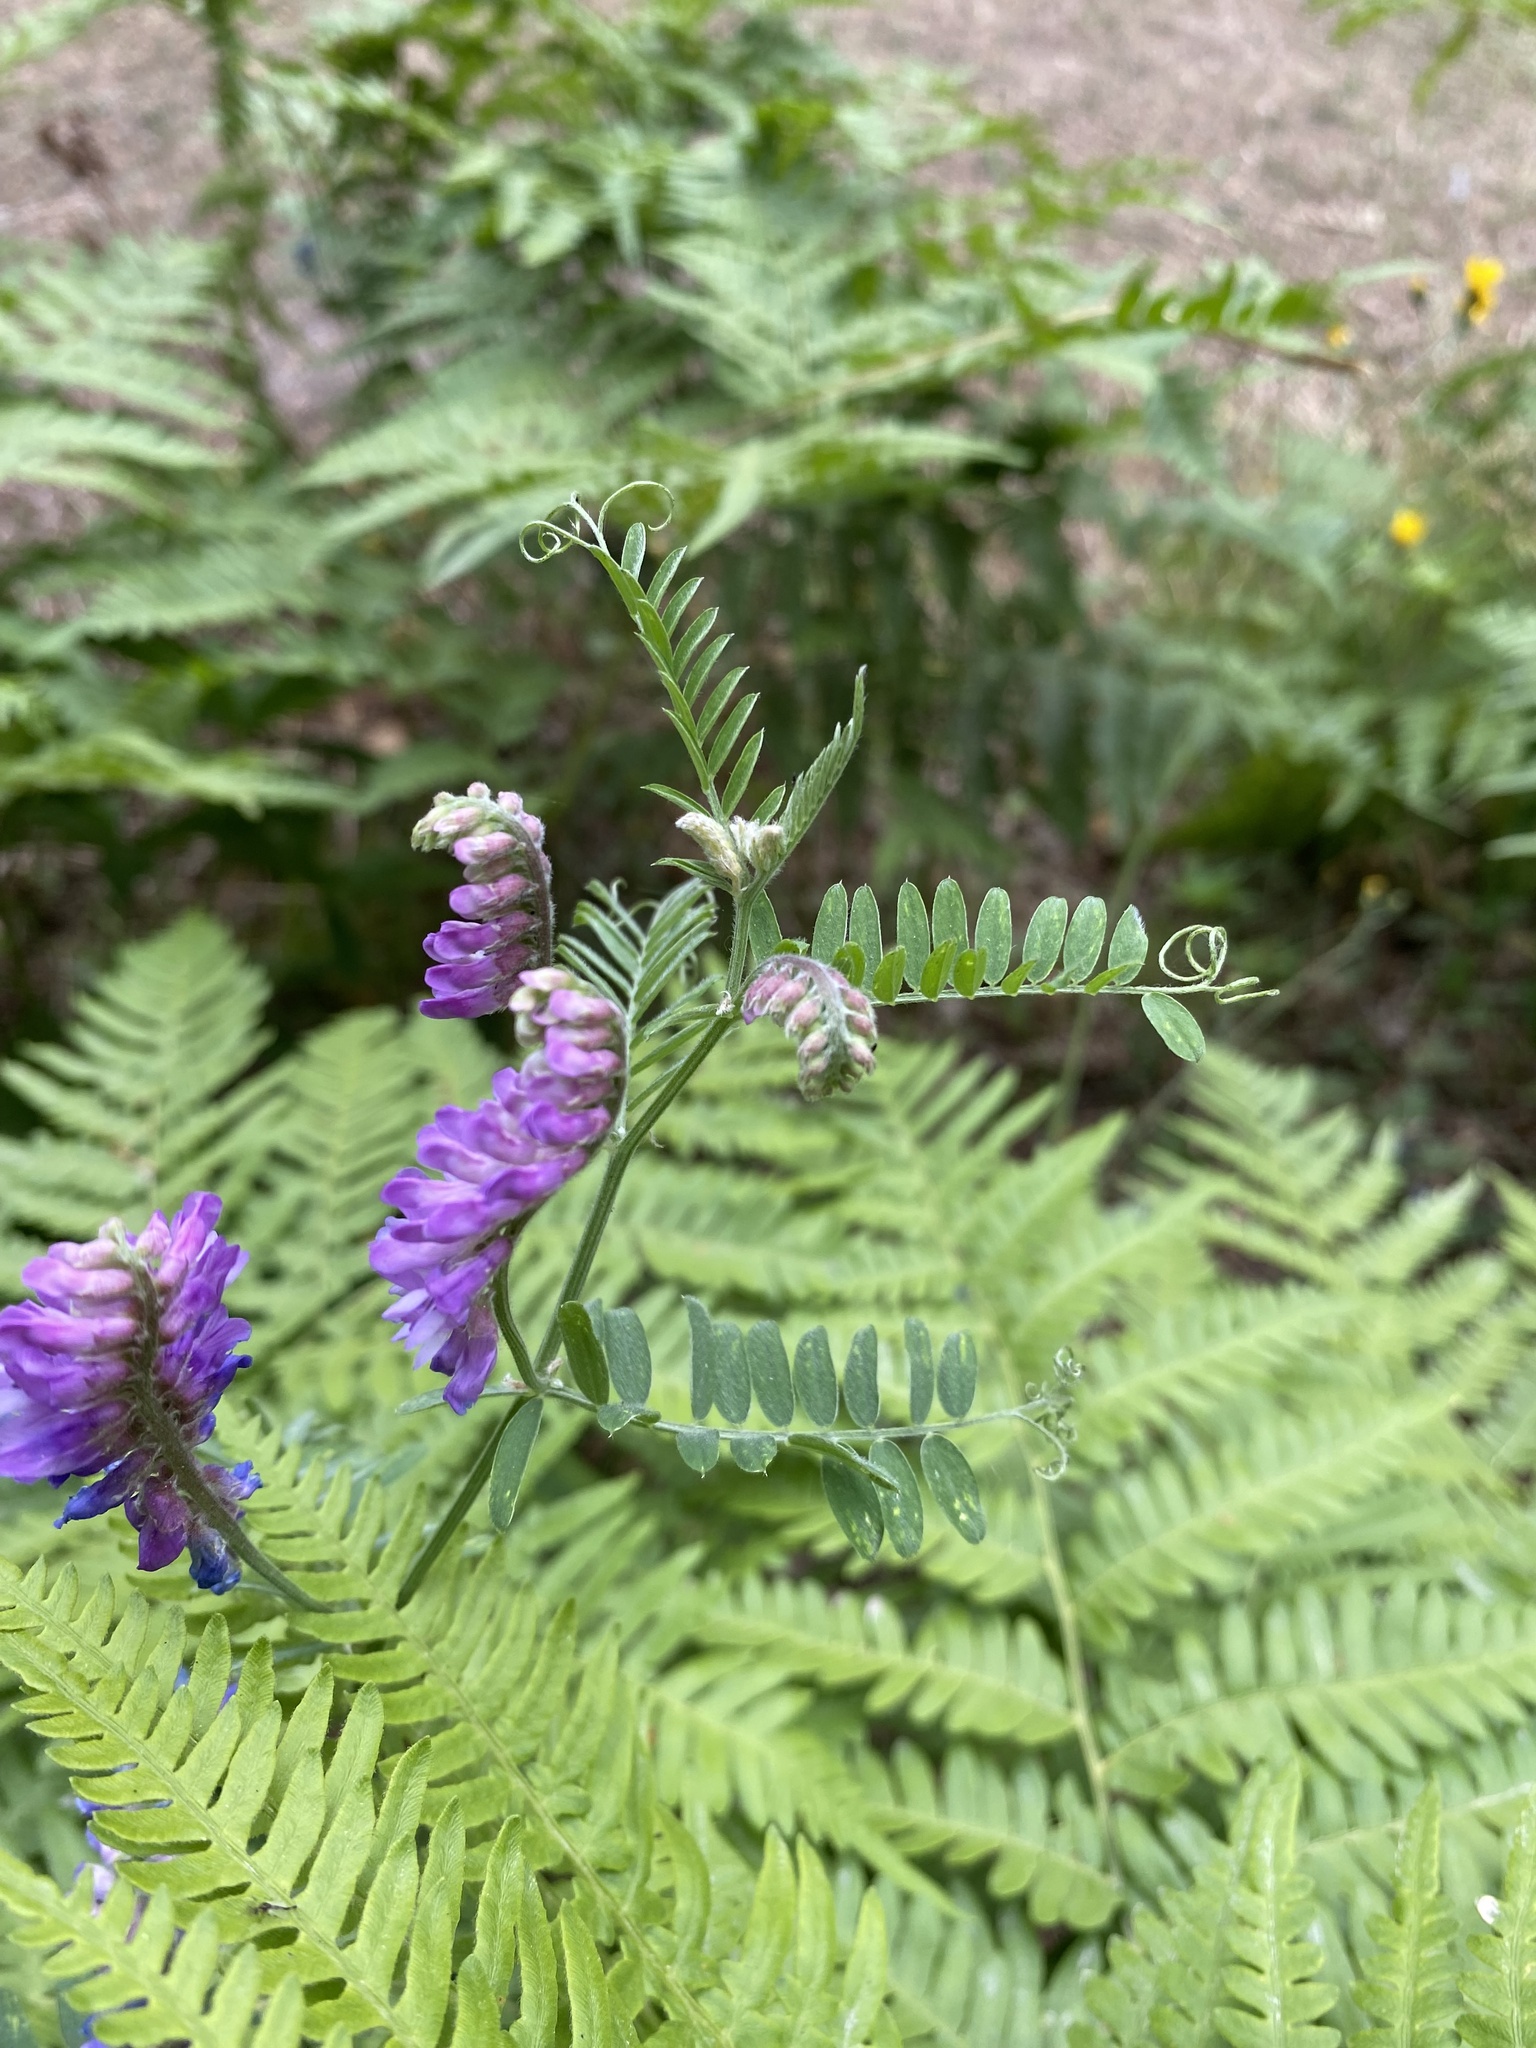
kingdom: Plantae
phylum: Tracheophyta
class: Magnoliopsida
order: Fabales
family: Fabaceae
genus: Vicia
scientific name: Vicia cracca
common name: Bird vetch
